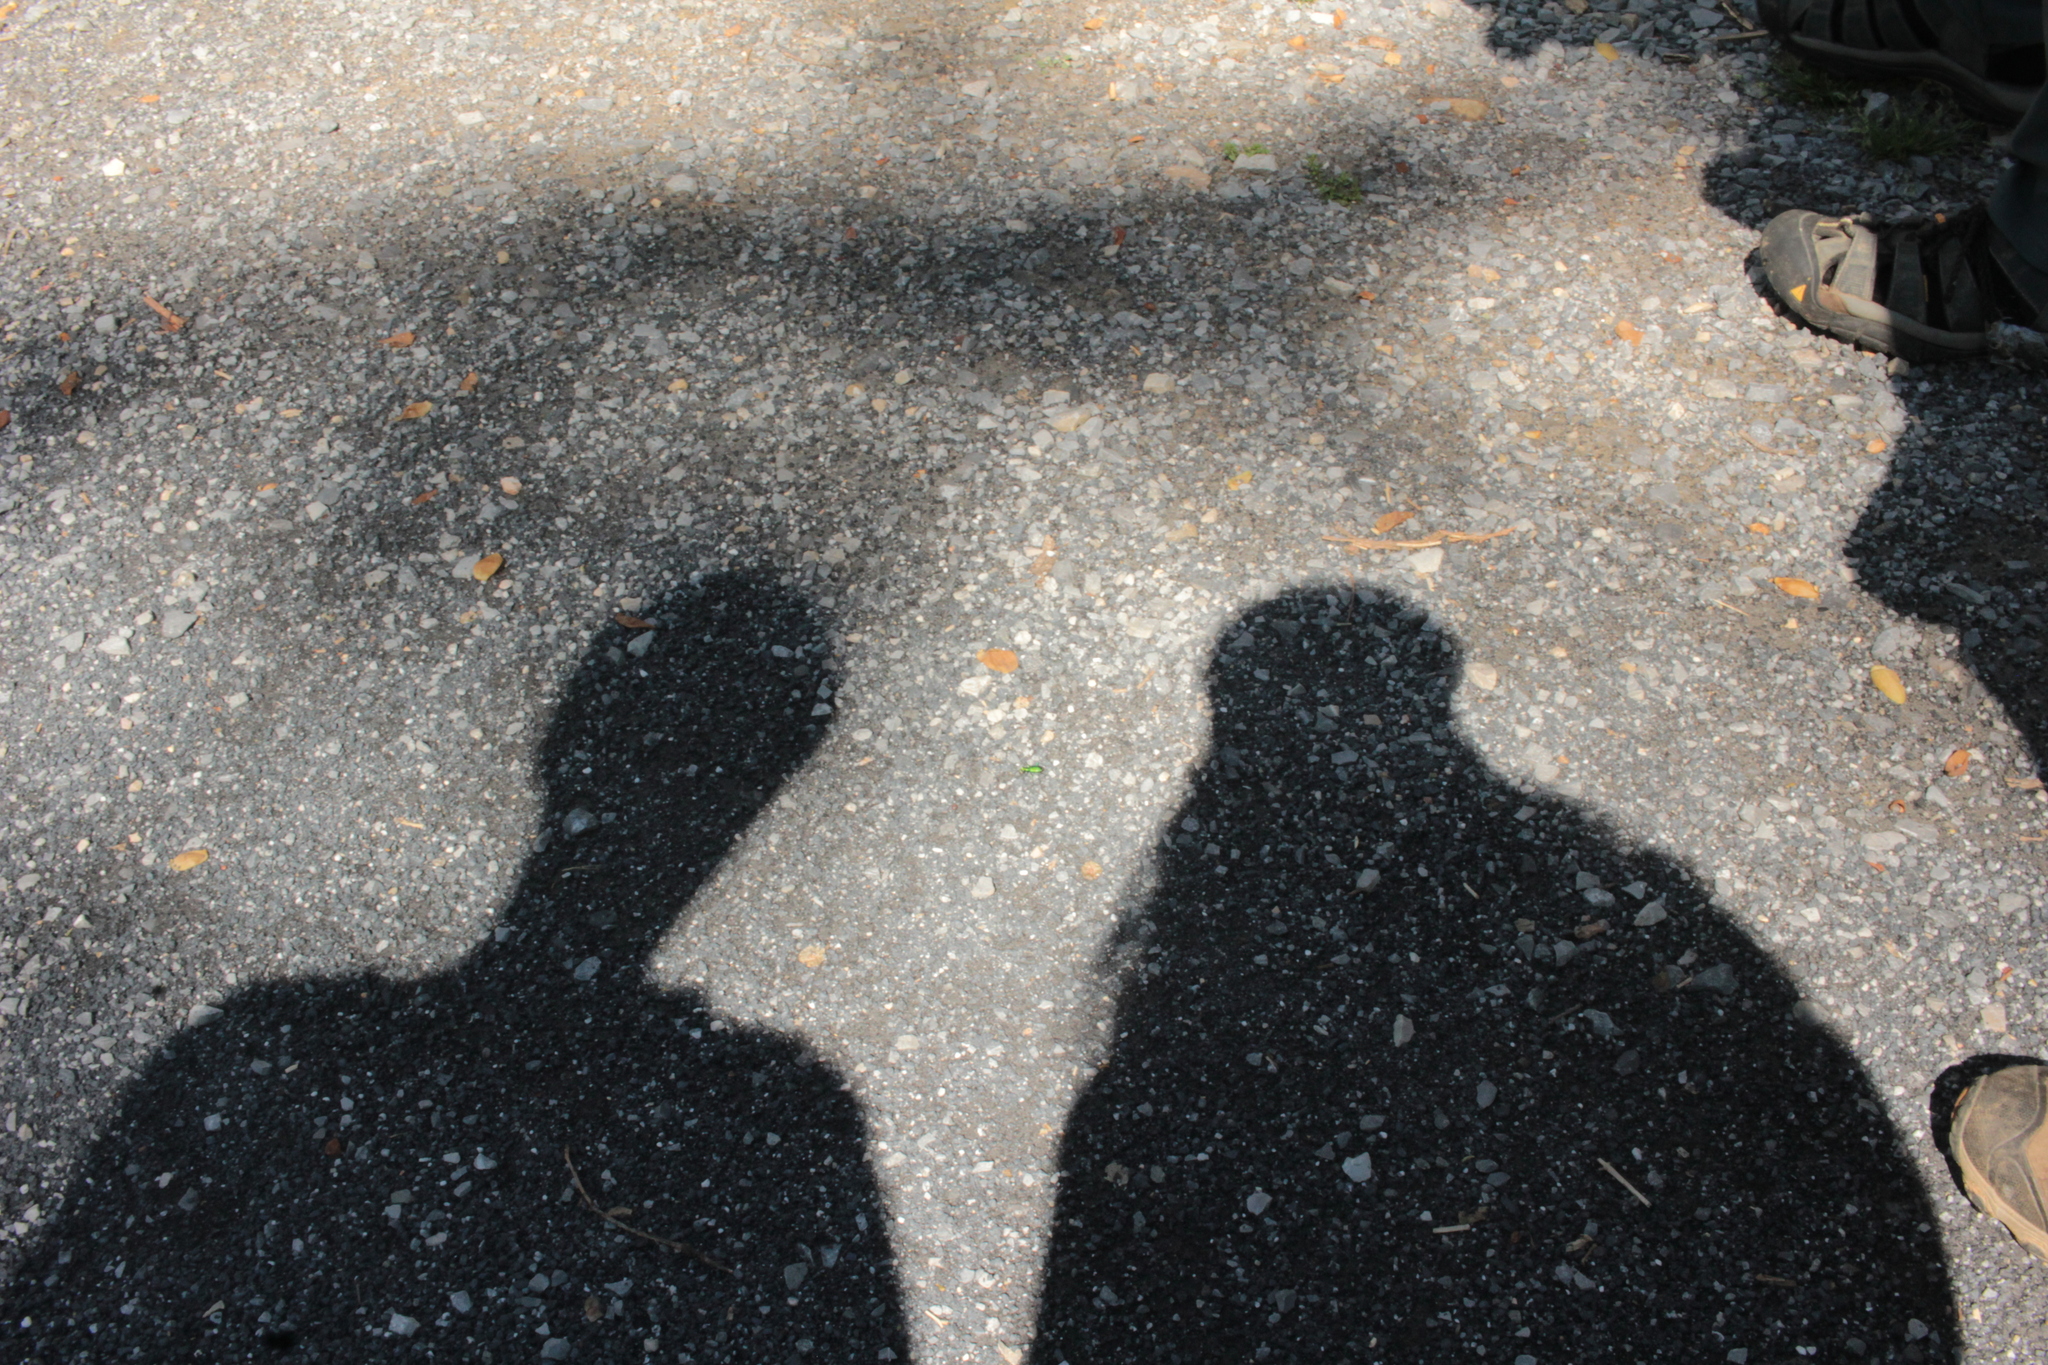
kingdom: Animalia
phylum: Arthropoda
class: Insecta
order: Coleoptera
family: Carabidae
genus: Cicindela
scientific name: Cicindela sexguttata
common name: Six-spotted tiger beetle
